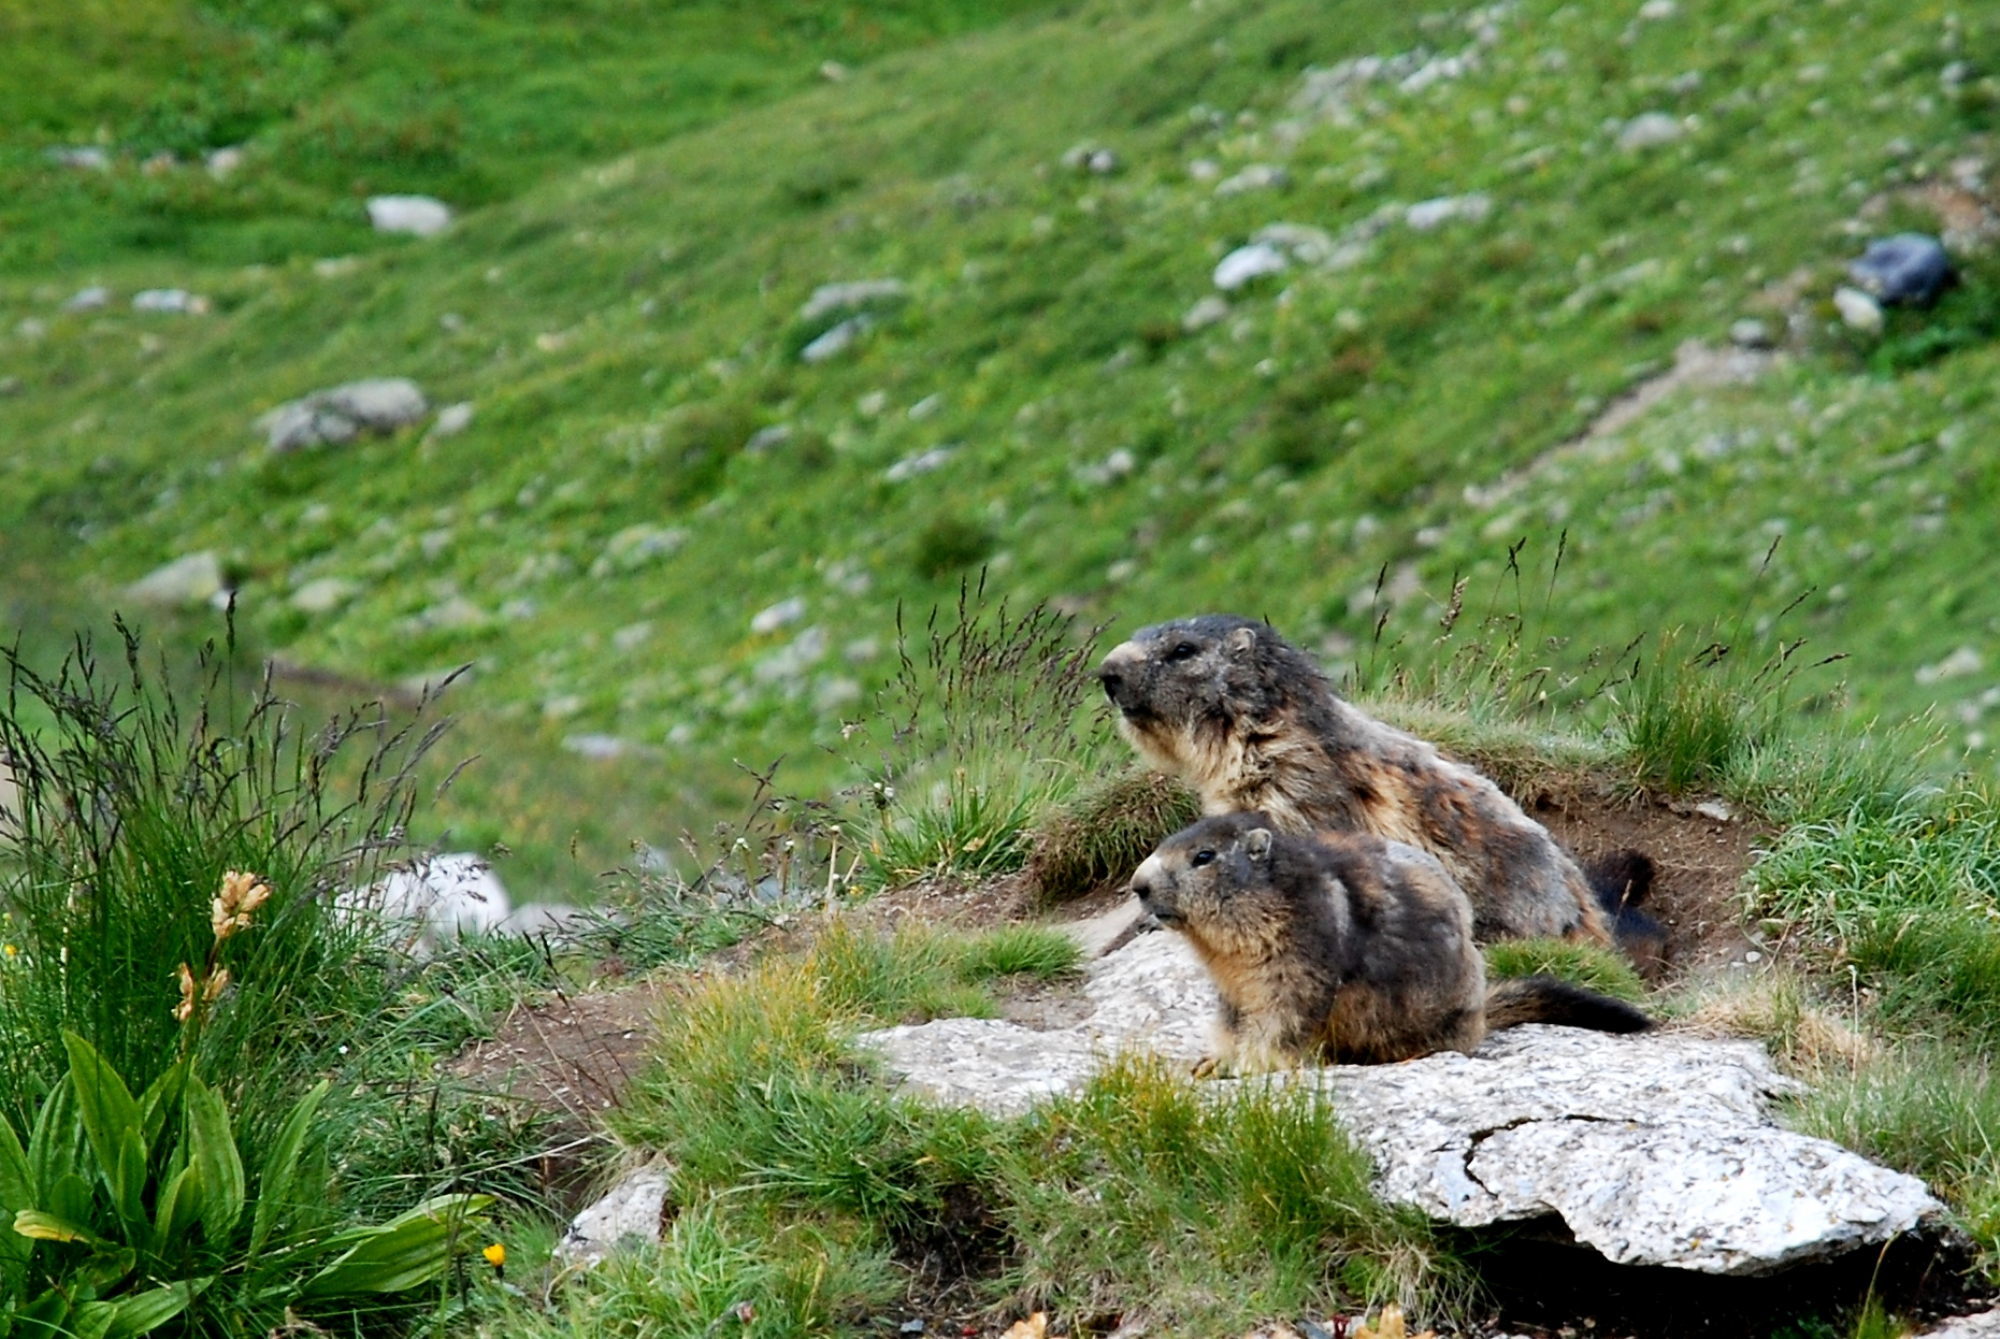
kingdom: Animalia
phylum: Chordata
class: Mammalia
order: Rodentia
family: Sciuridae
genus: Marmota
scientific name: Marmota marmota
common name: Alpine marmot
